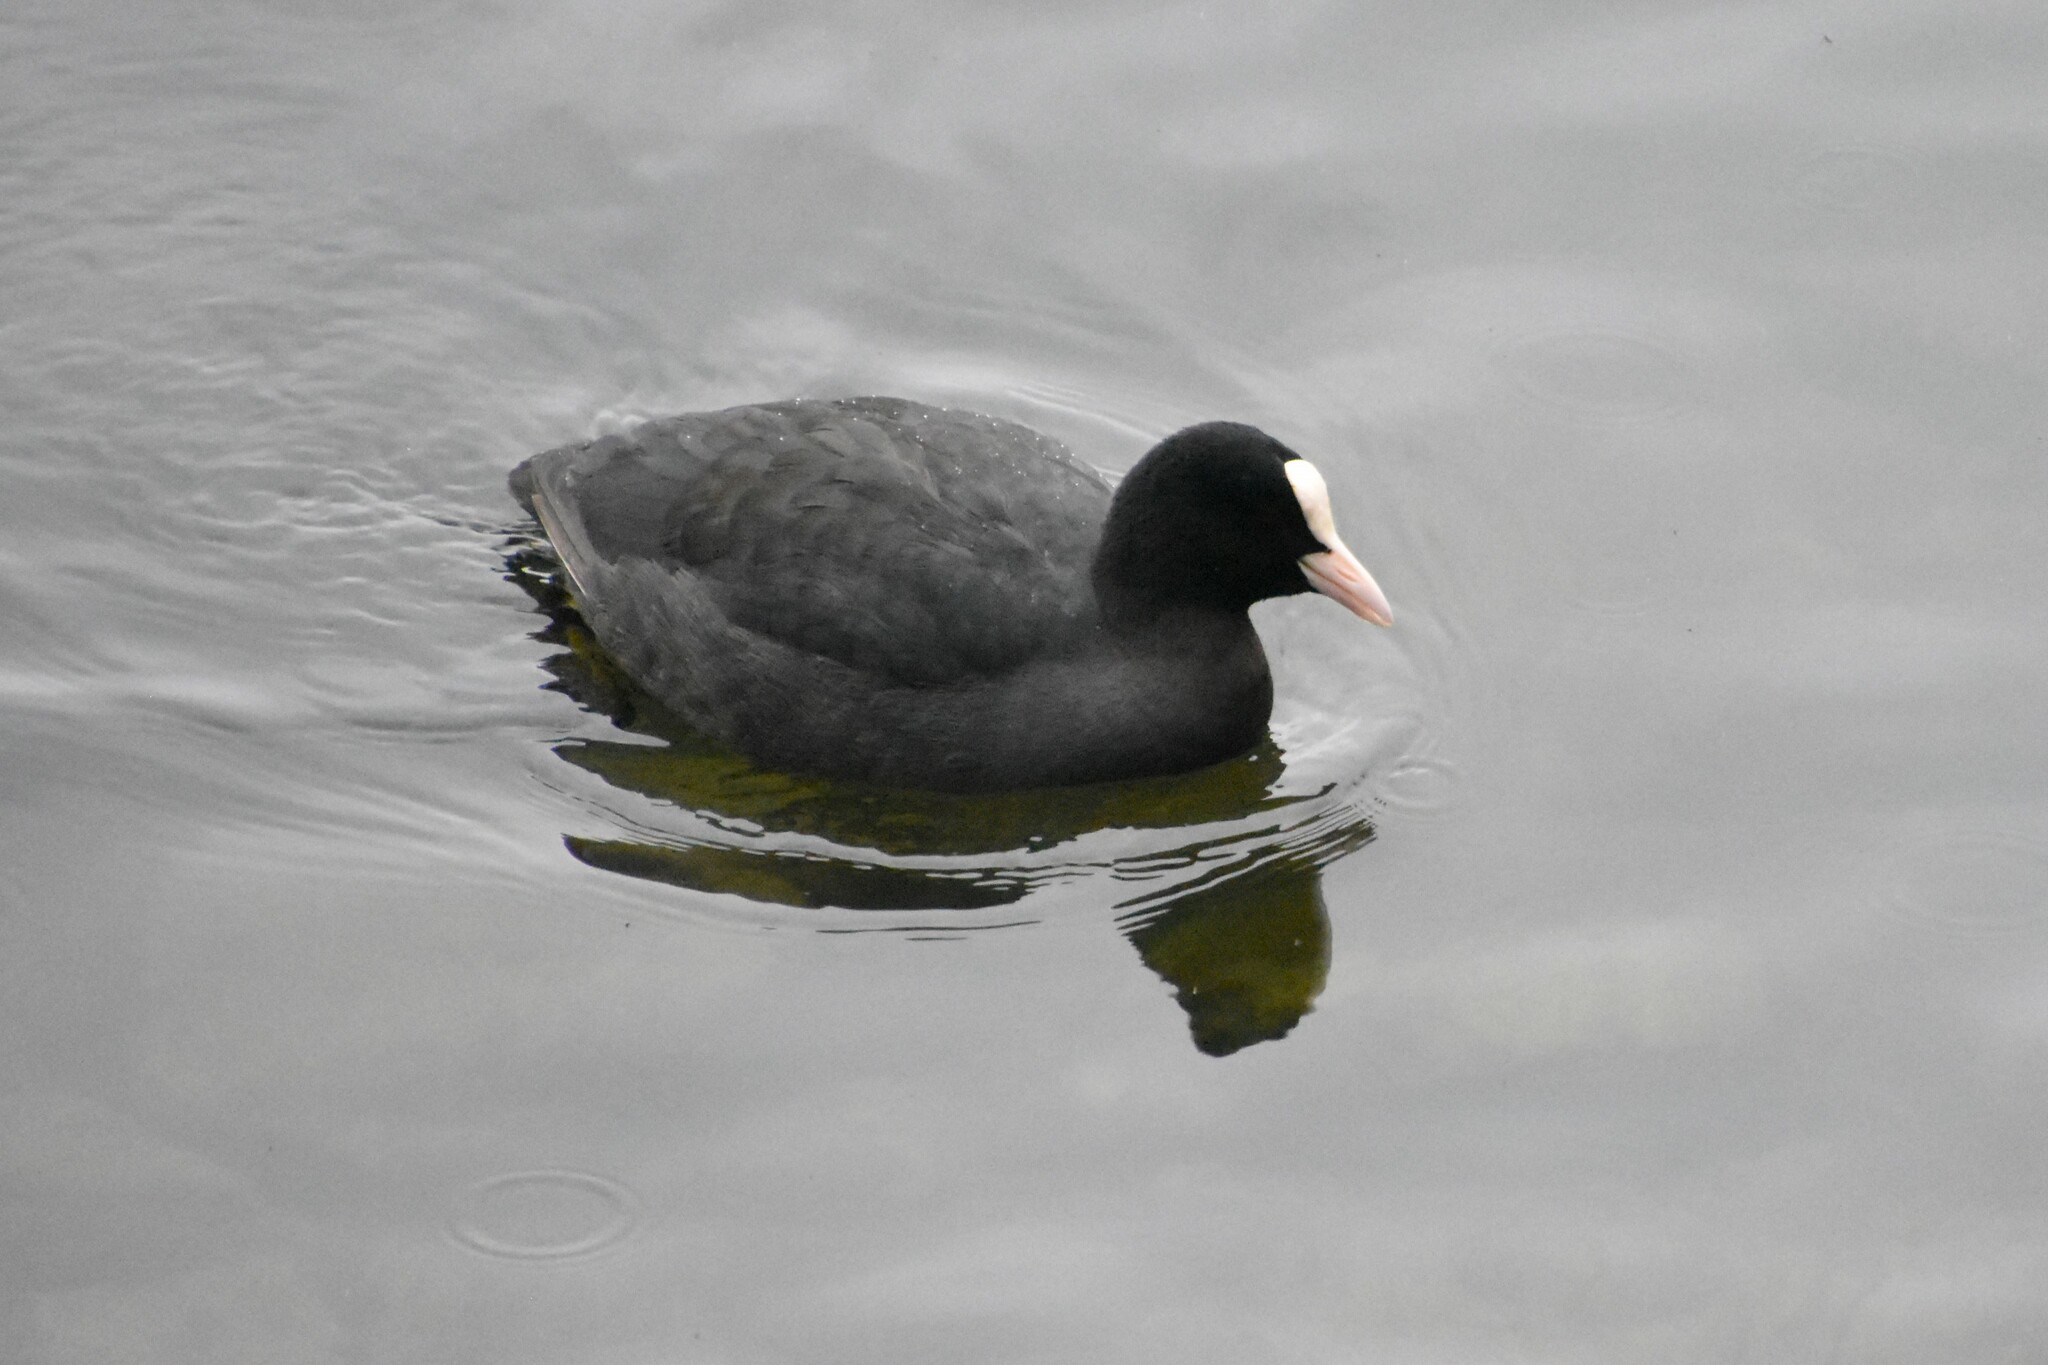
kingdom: Animalia
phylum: Chordata
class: Aves
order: Gruiformes
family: Rallidae
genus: Fulica
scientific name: Fulica atra
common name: Eurasian coot
